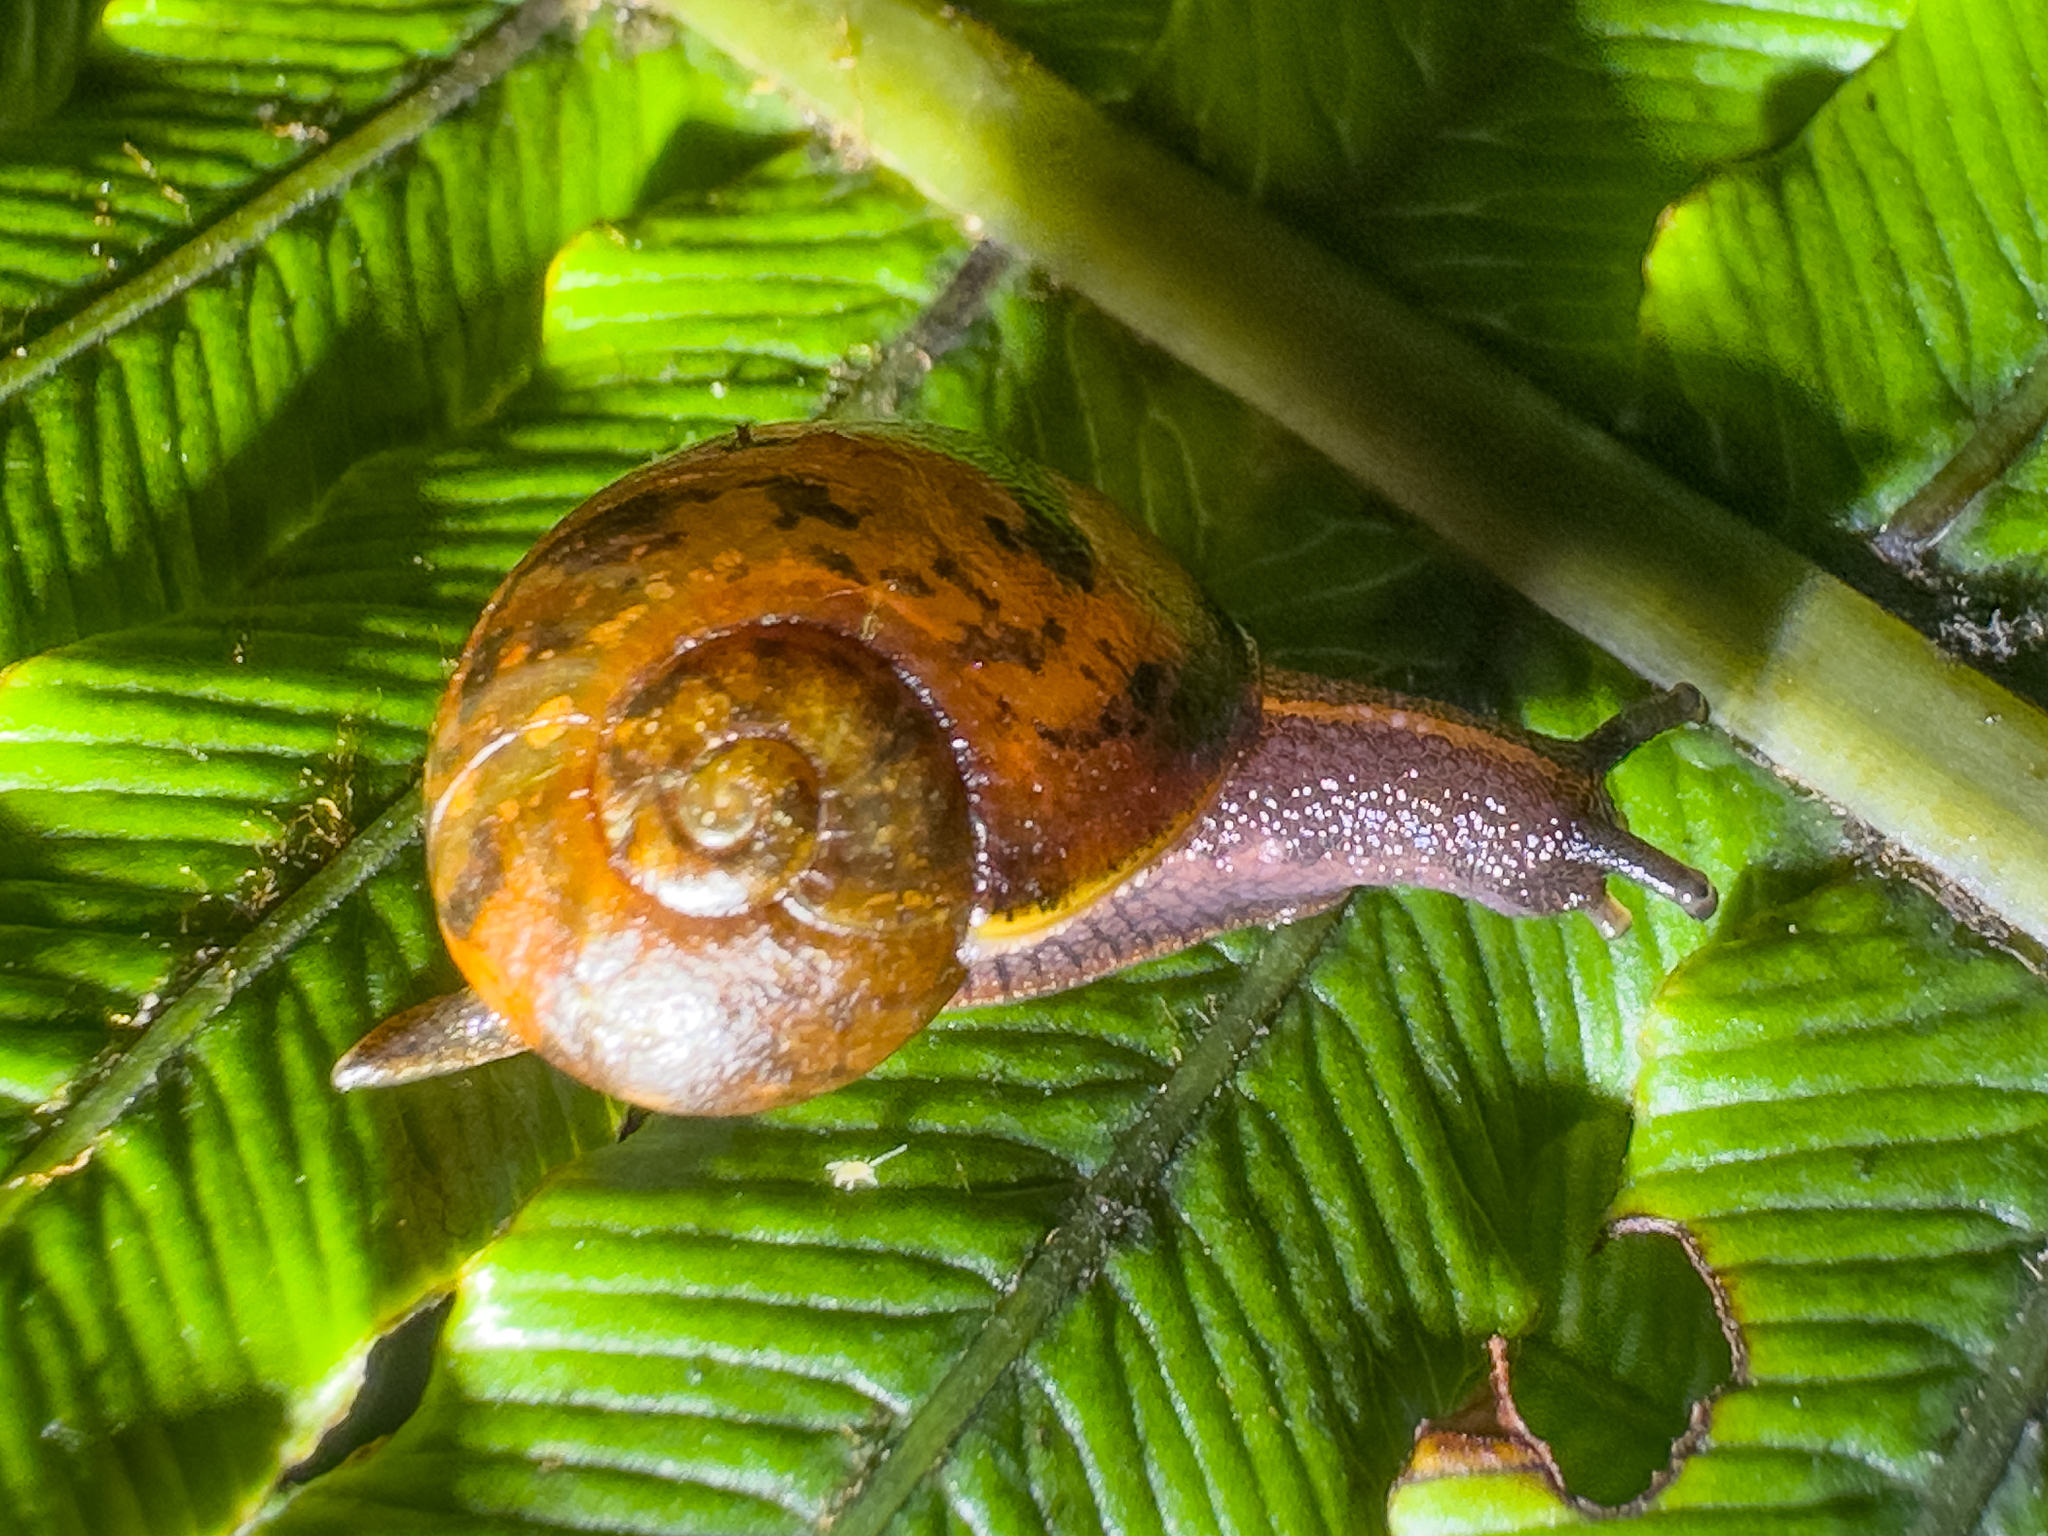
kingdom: Animalia
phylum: Mollusca
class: Gastropoda
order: Stylommatophora
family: Rhytididae
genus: Rhytida
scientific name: Rhytida australis
